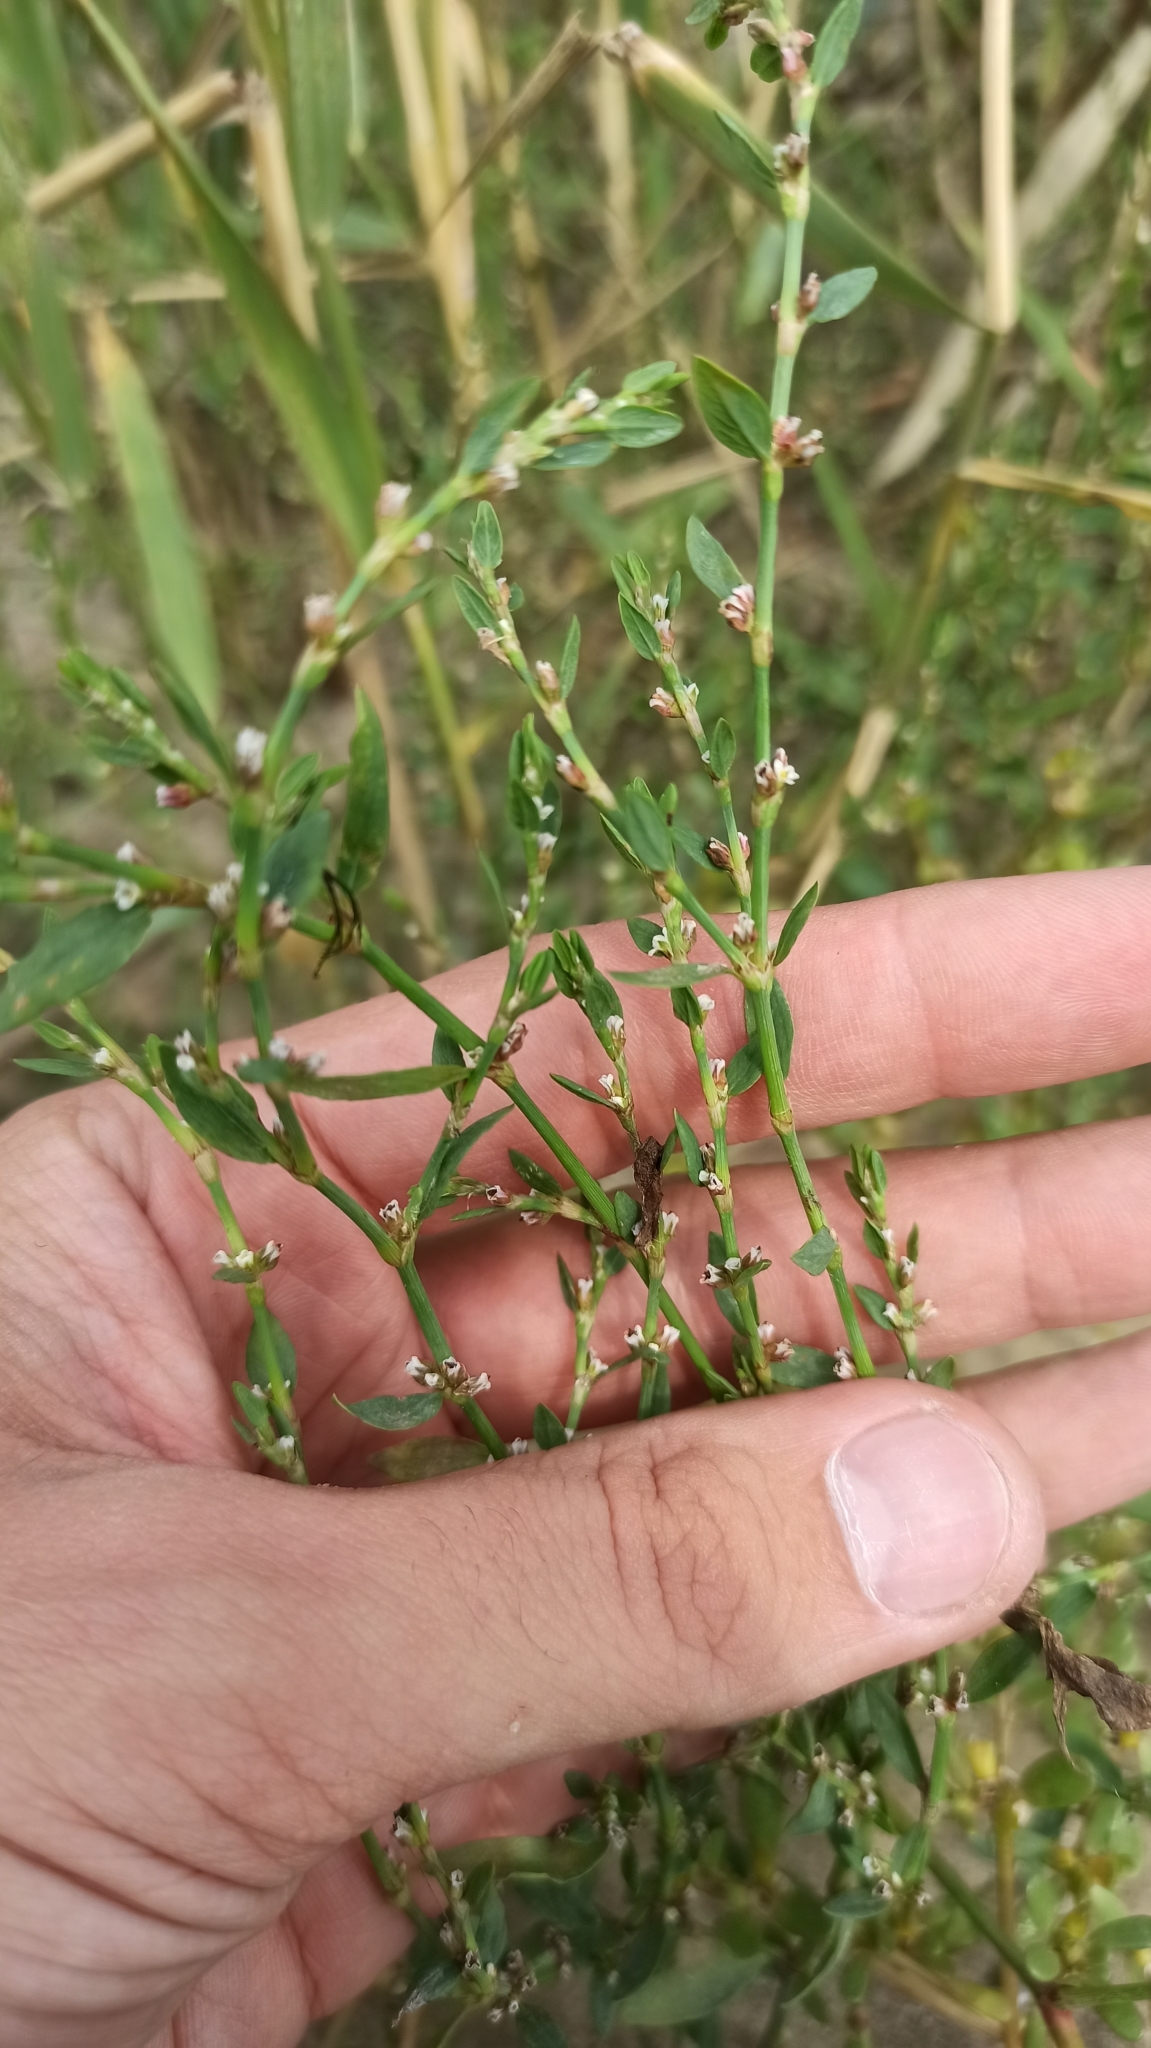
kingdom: Plantae
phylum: Tracheophyta
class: Magnoliopsida
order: Caryophyllales
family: Polygonaceae
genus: Polygonum
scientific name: Polygonum arenastrum
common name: Equal-leaved knotgrass
